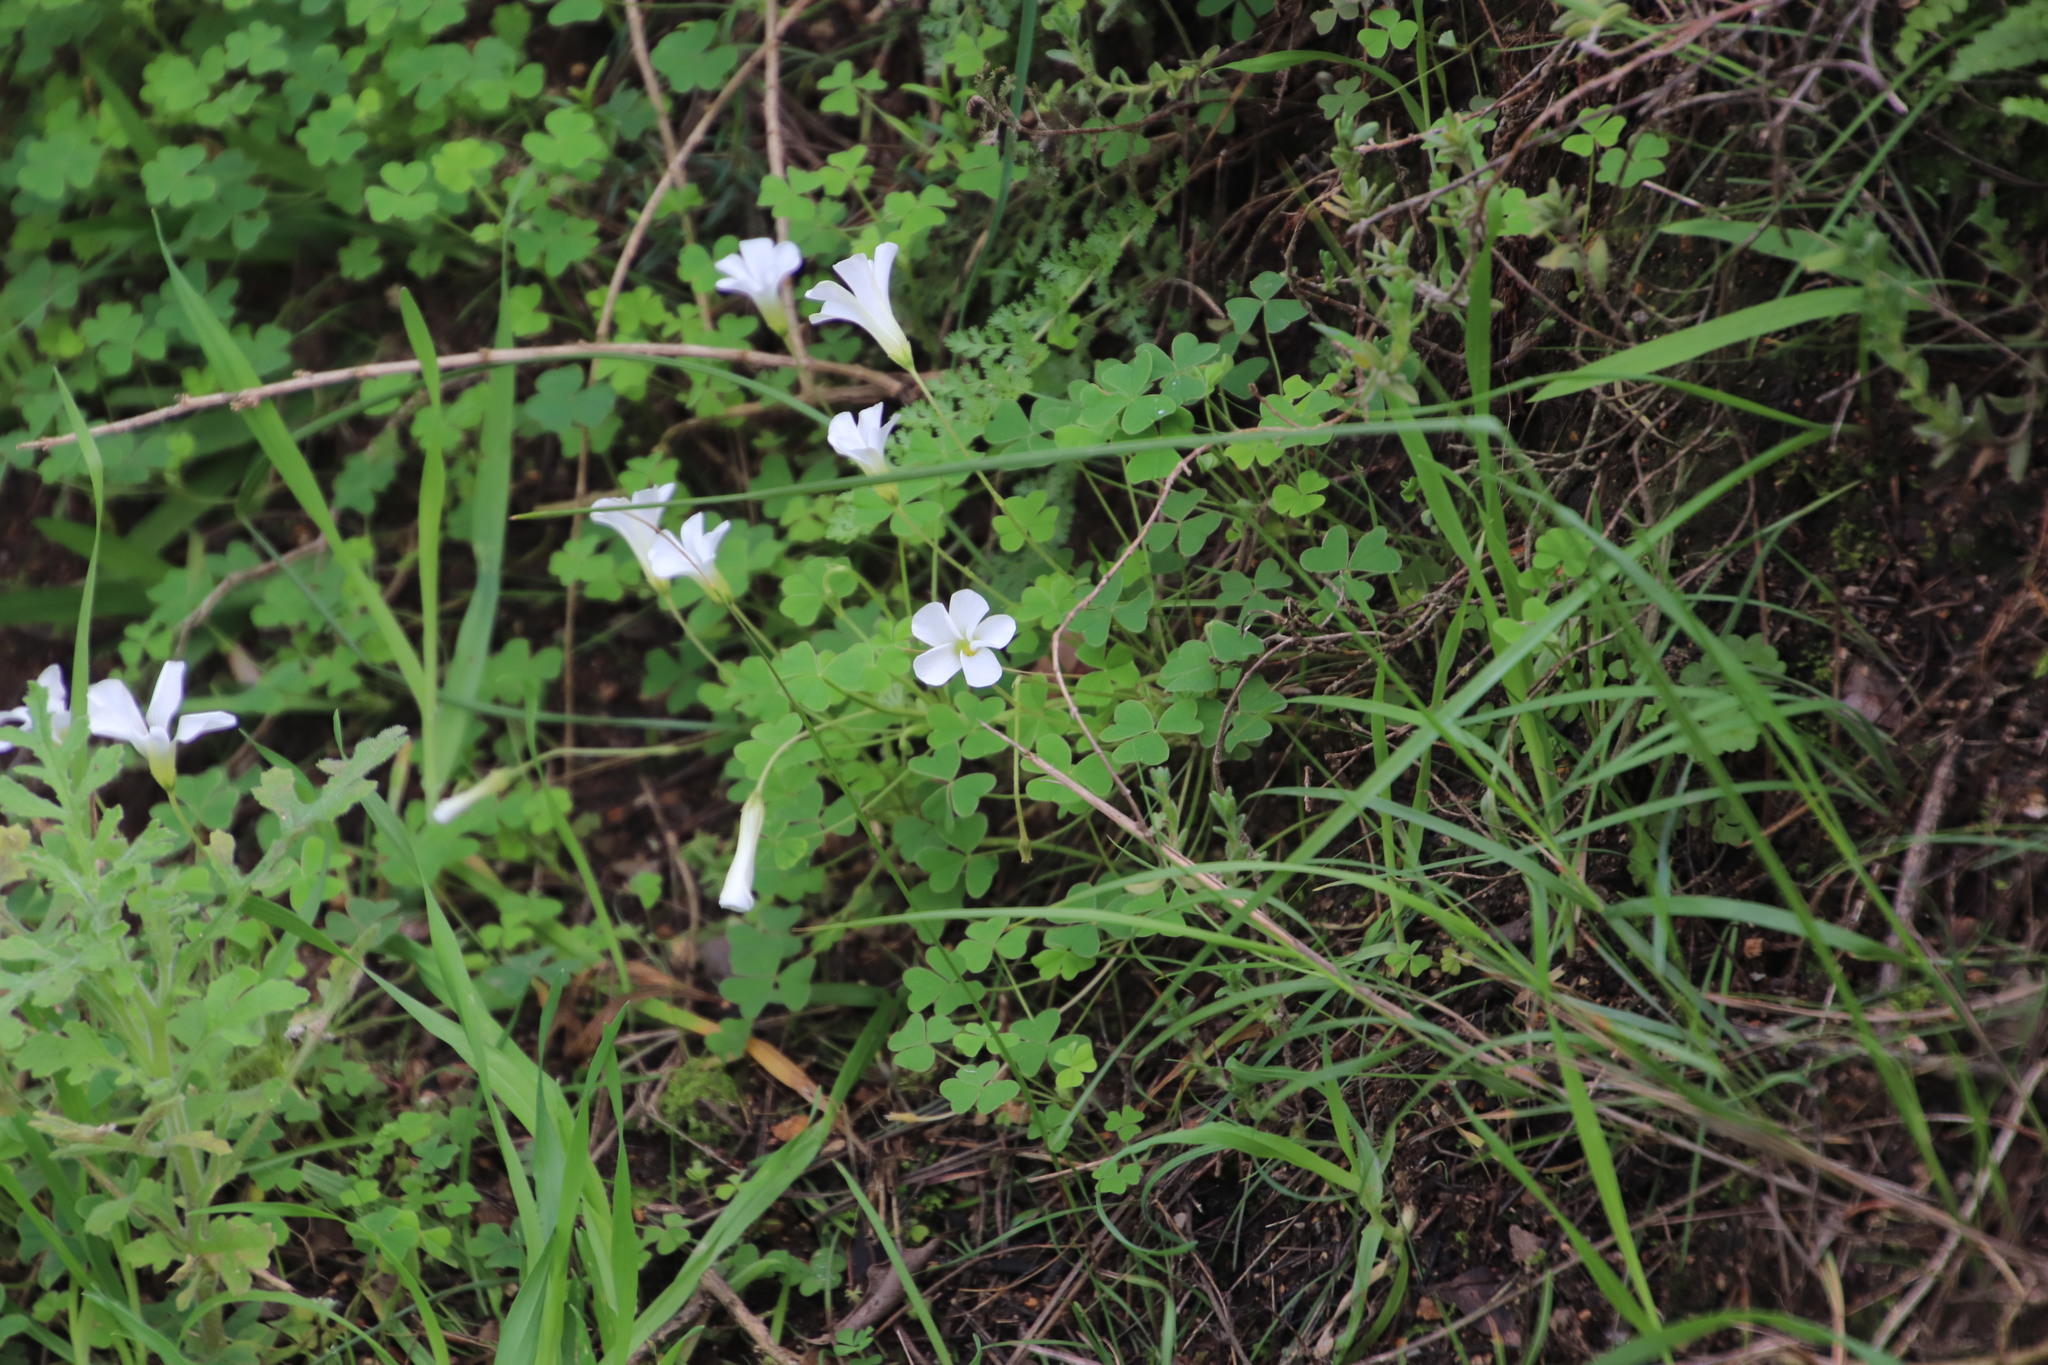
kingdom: Plantae
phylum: Tracheophyta
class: Magnoliopsida
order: Oxalidales
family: Oxalidaceae
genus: Oxalis
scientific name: Oxalis lanata
